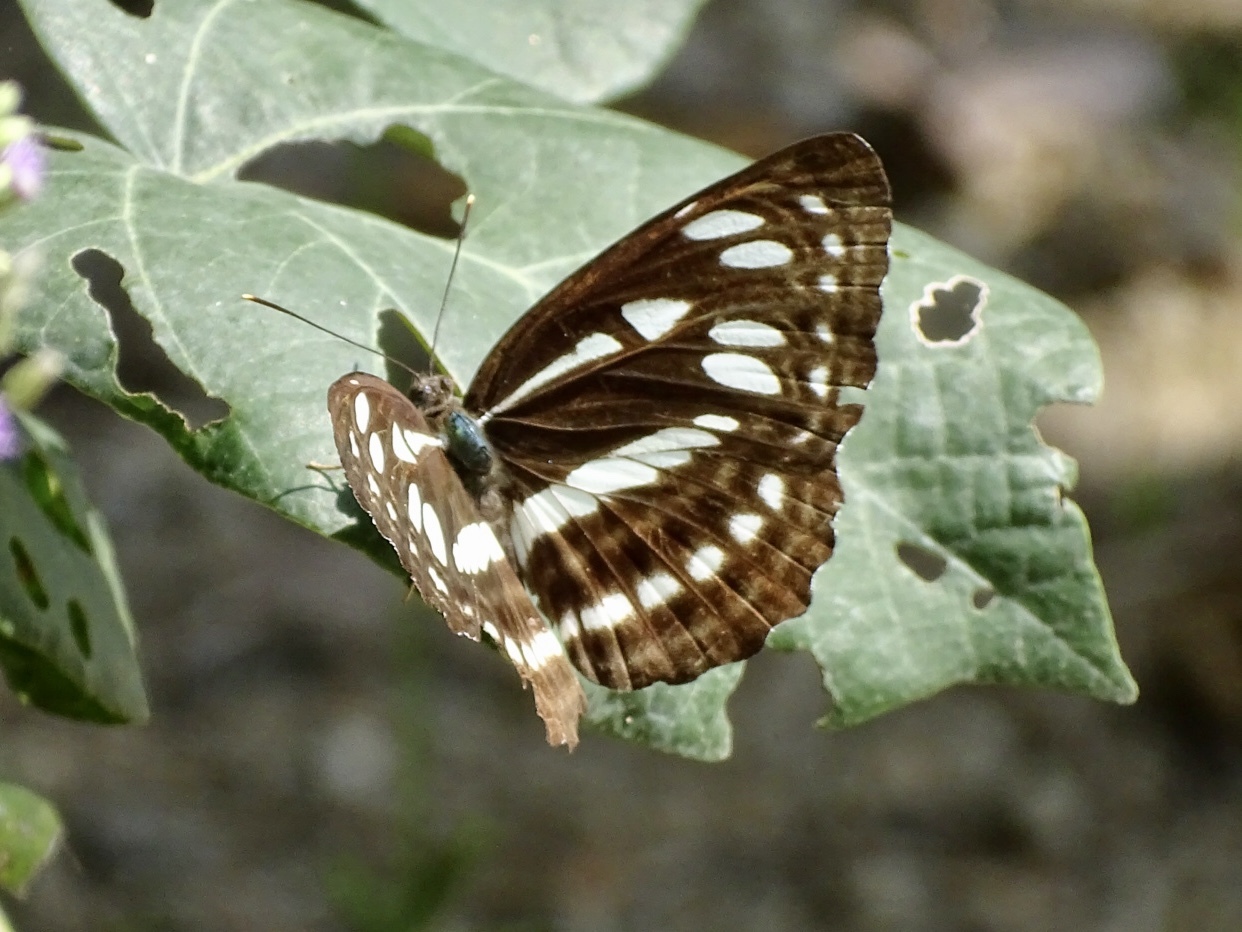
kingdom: Animalia
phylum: Arthropoda
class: Insecta
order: Lepidoptera
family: Nymphalidae
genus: Phaedyma
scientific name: Phaedyma columella
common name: Short banded sailer
